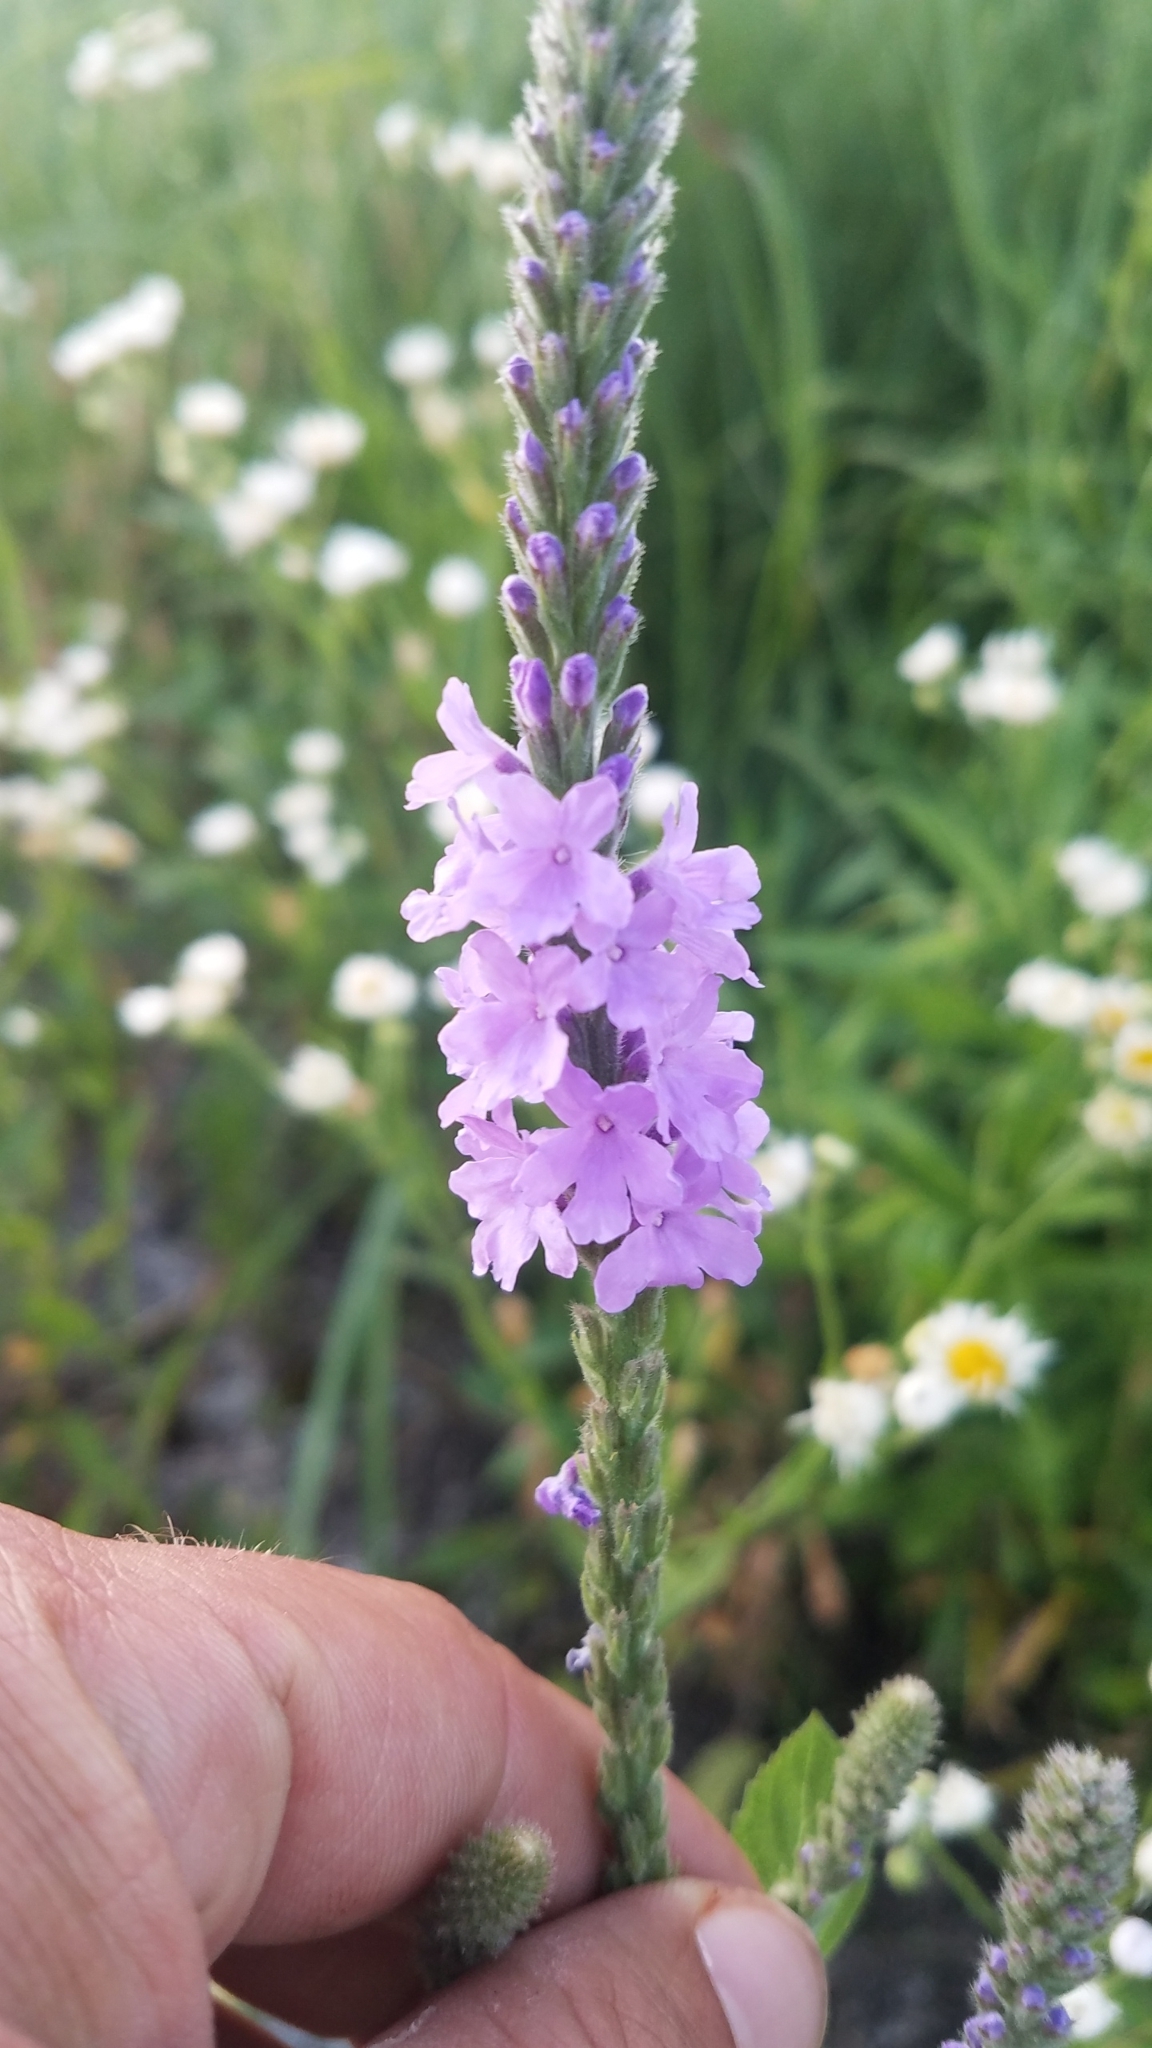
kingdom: Plantae
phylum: Tracheophyta
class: Magnoliopsida
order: Lamiales
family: Verbenaceae
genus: Verbena
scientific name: Verbena stricta
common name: Hoary vervain
